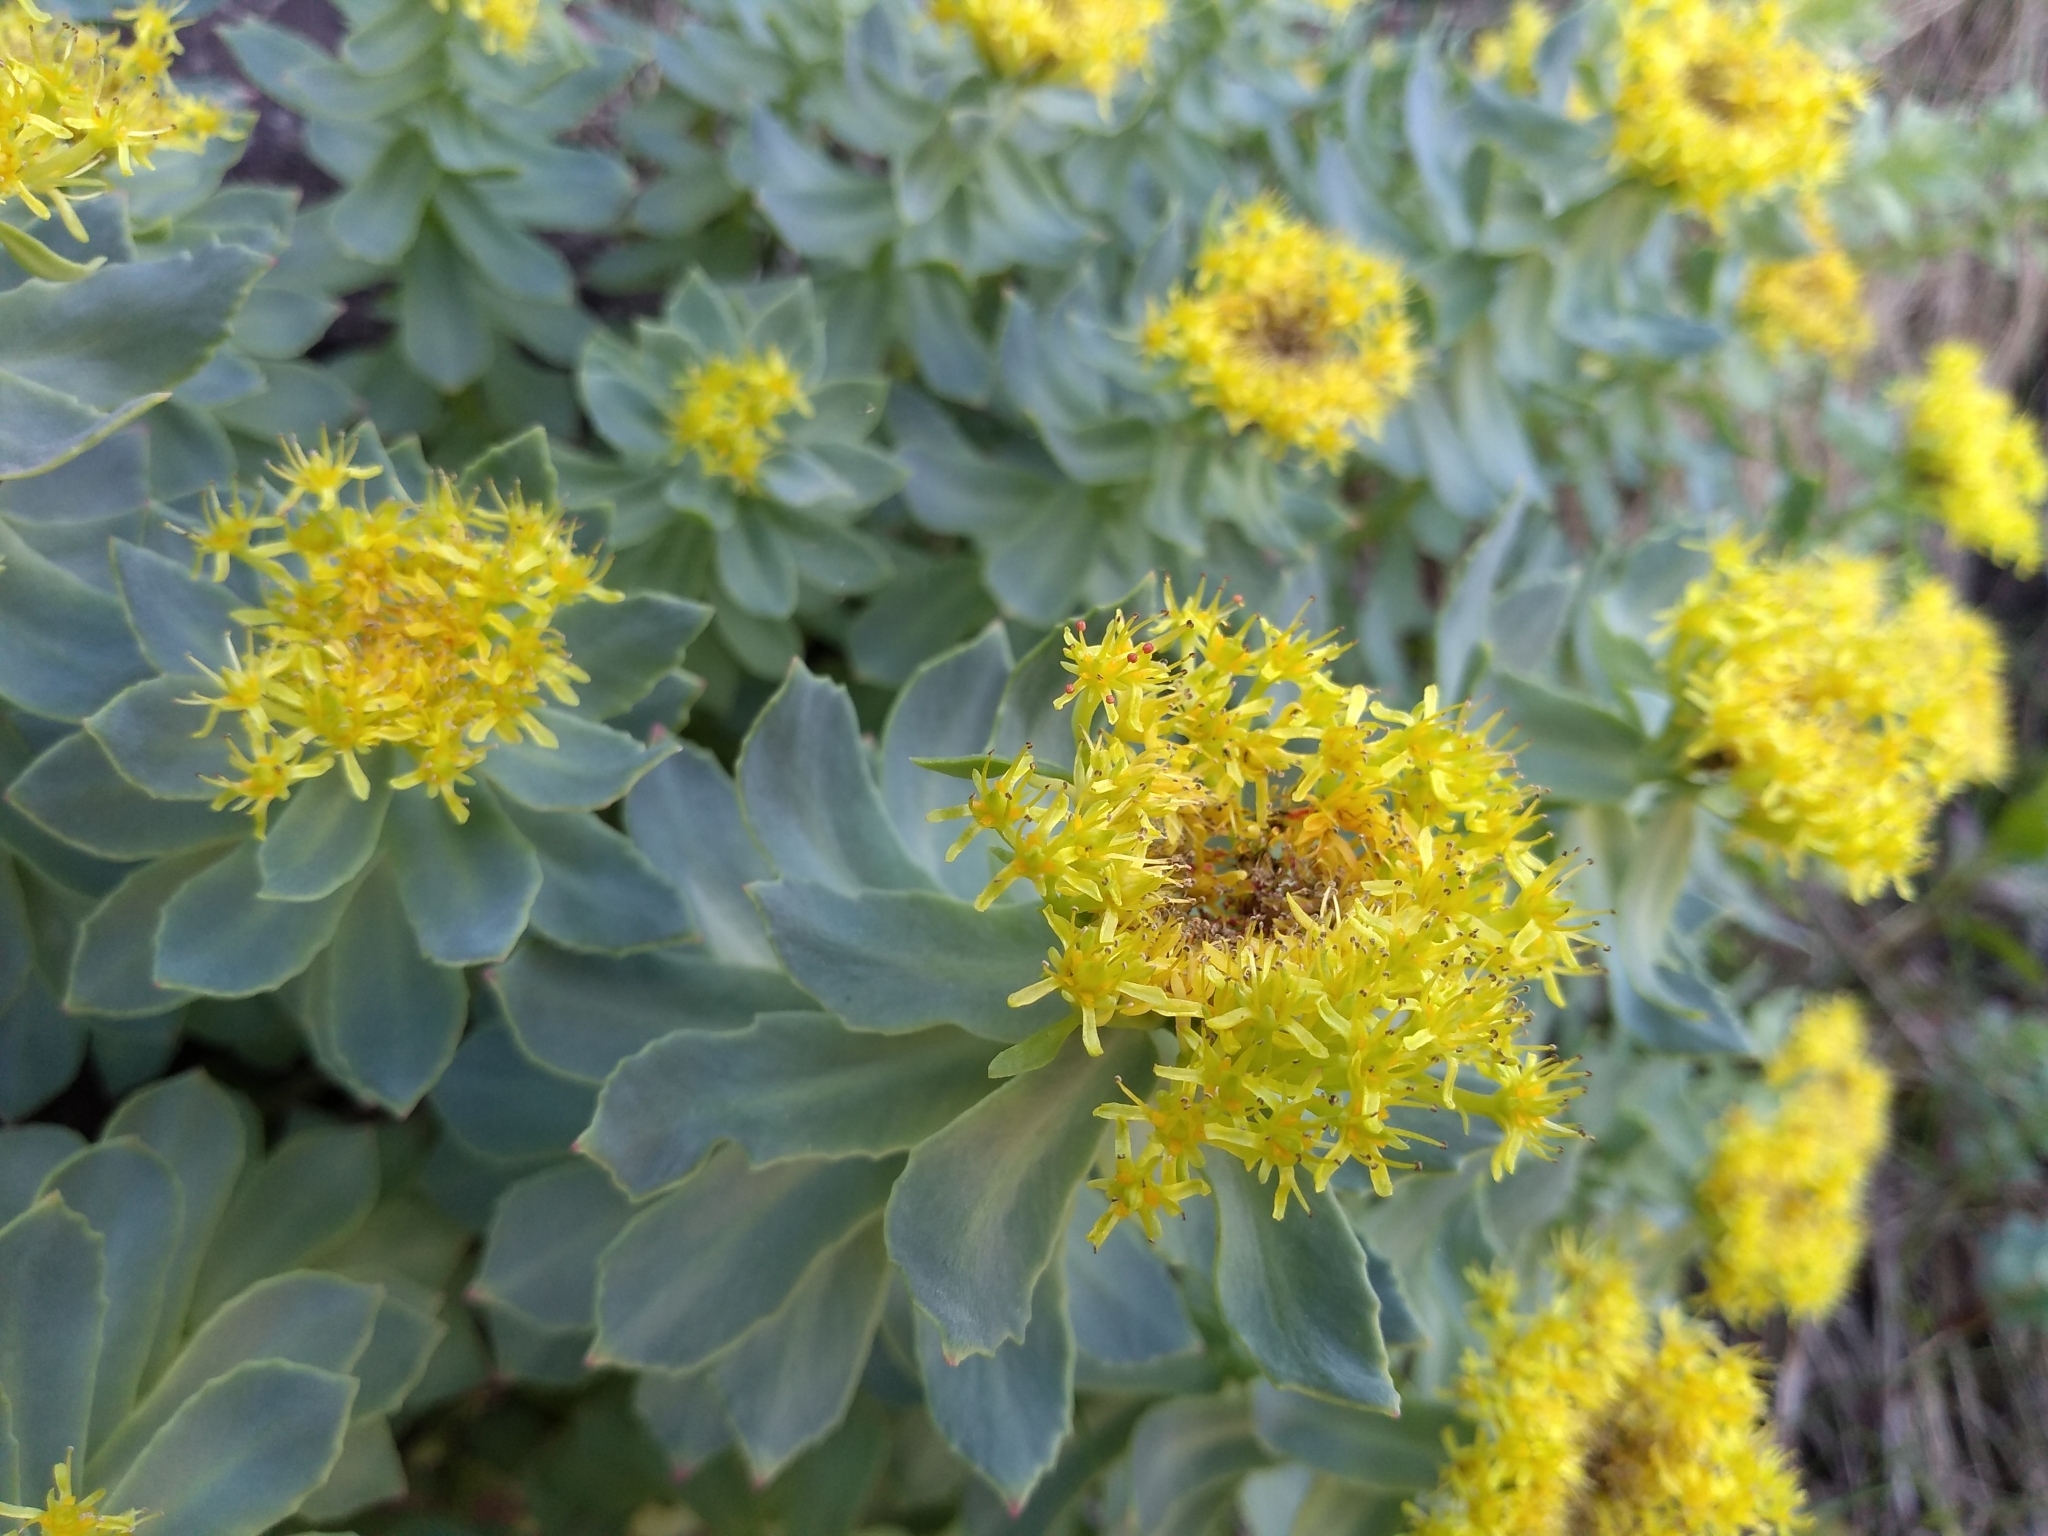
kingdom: Plantae
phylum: Tracheophyta
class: Magnoliopsida
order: Saxifragales
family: Crassulaceae
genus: Rhodiola
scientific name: Rhodiola rosea
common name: Roseroot
